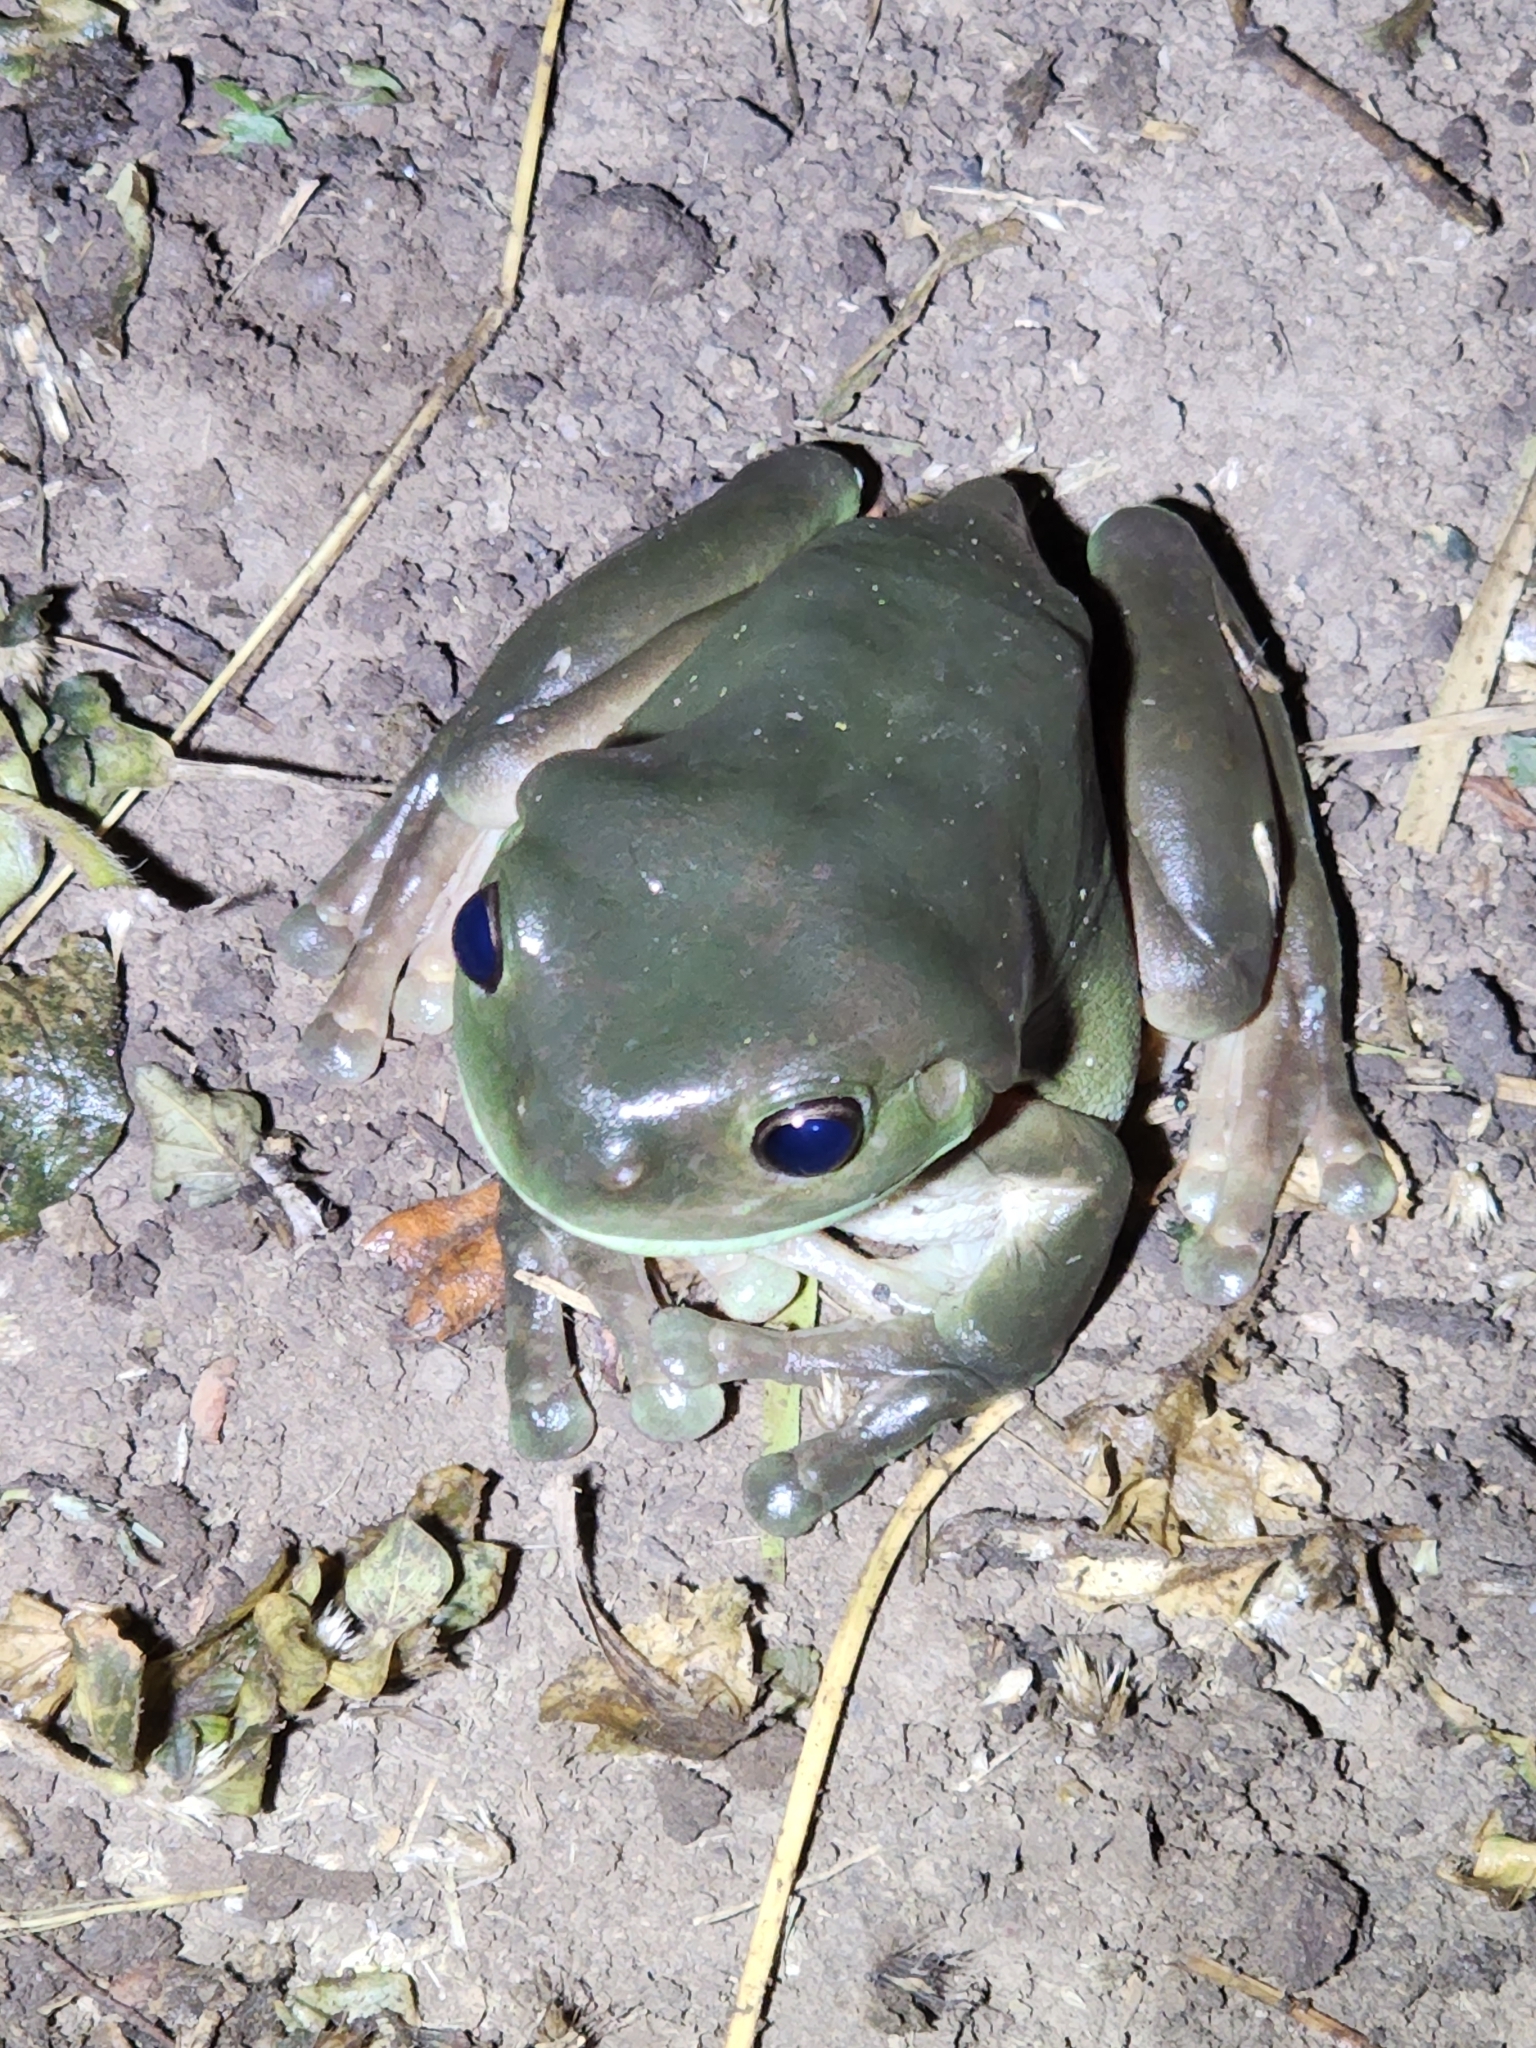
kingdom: Animalia
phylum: Chordata
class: Amphibia
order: Anura
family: Pelodryadidae
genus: Ranoidea
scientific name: Ranoidea caerulea
